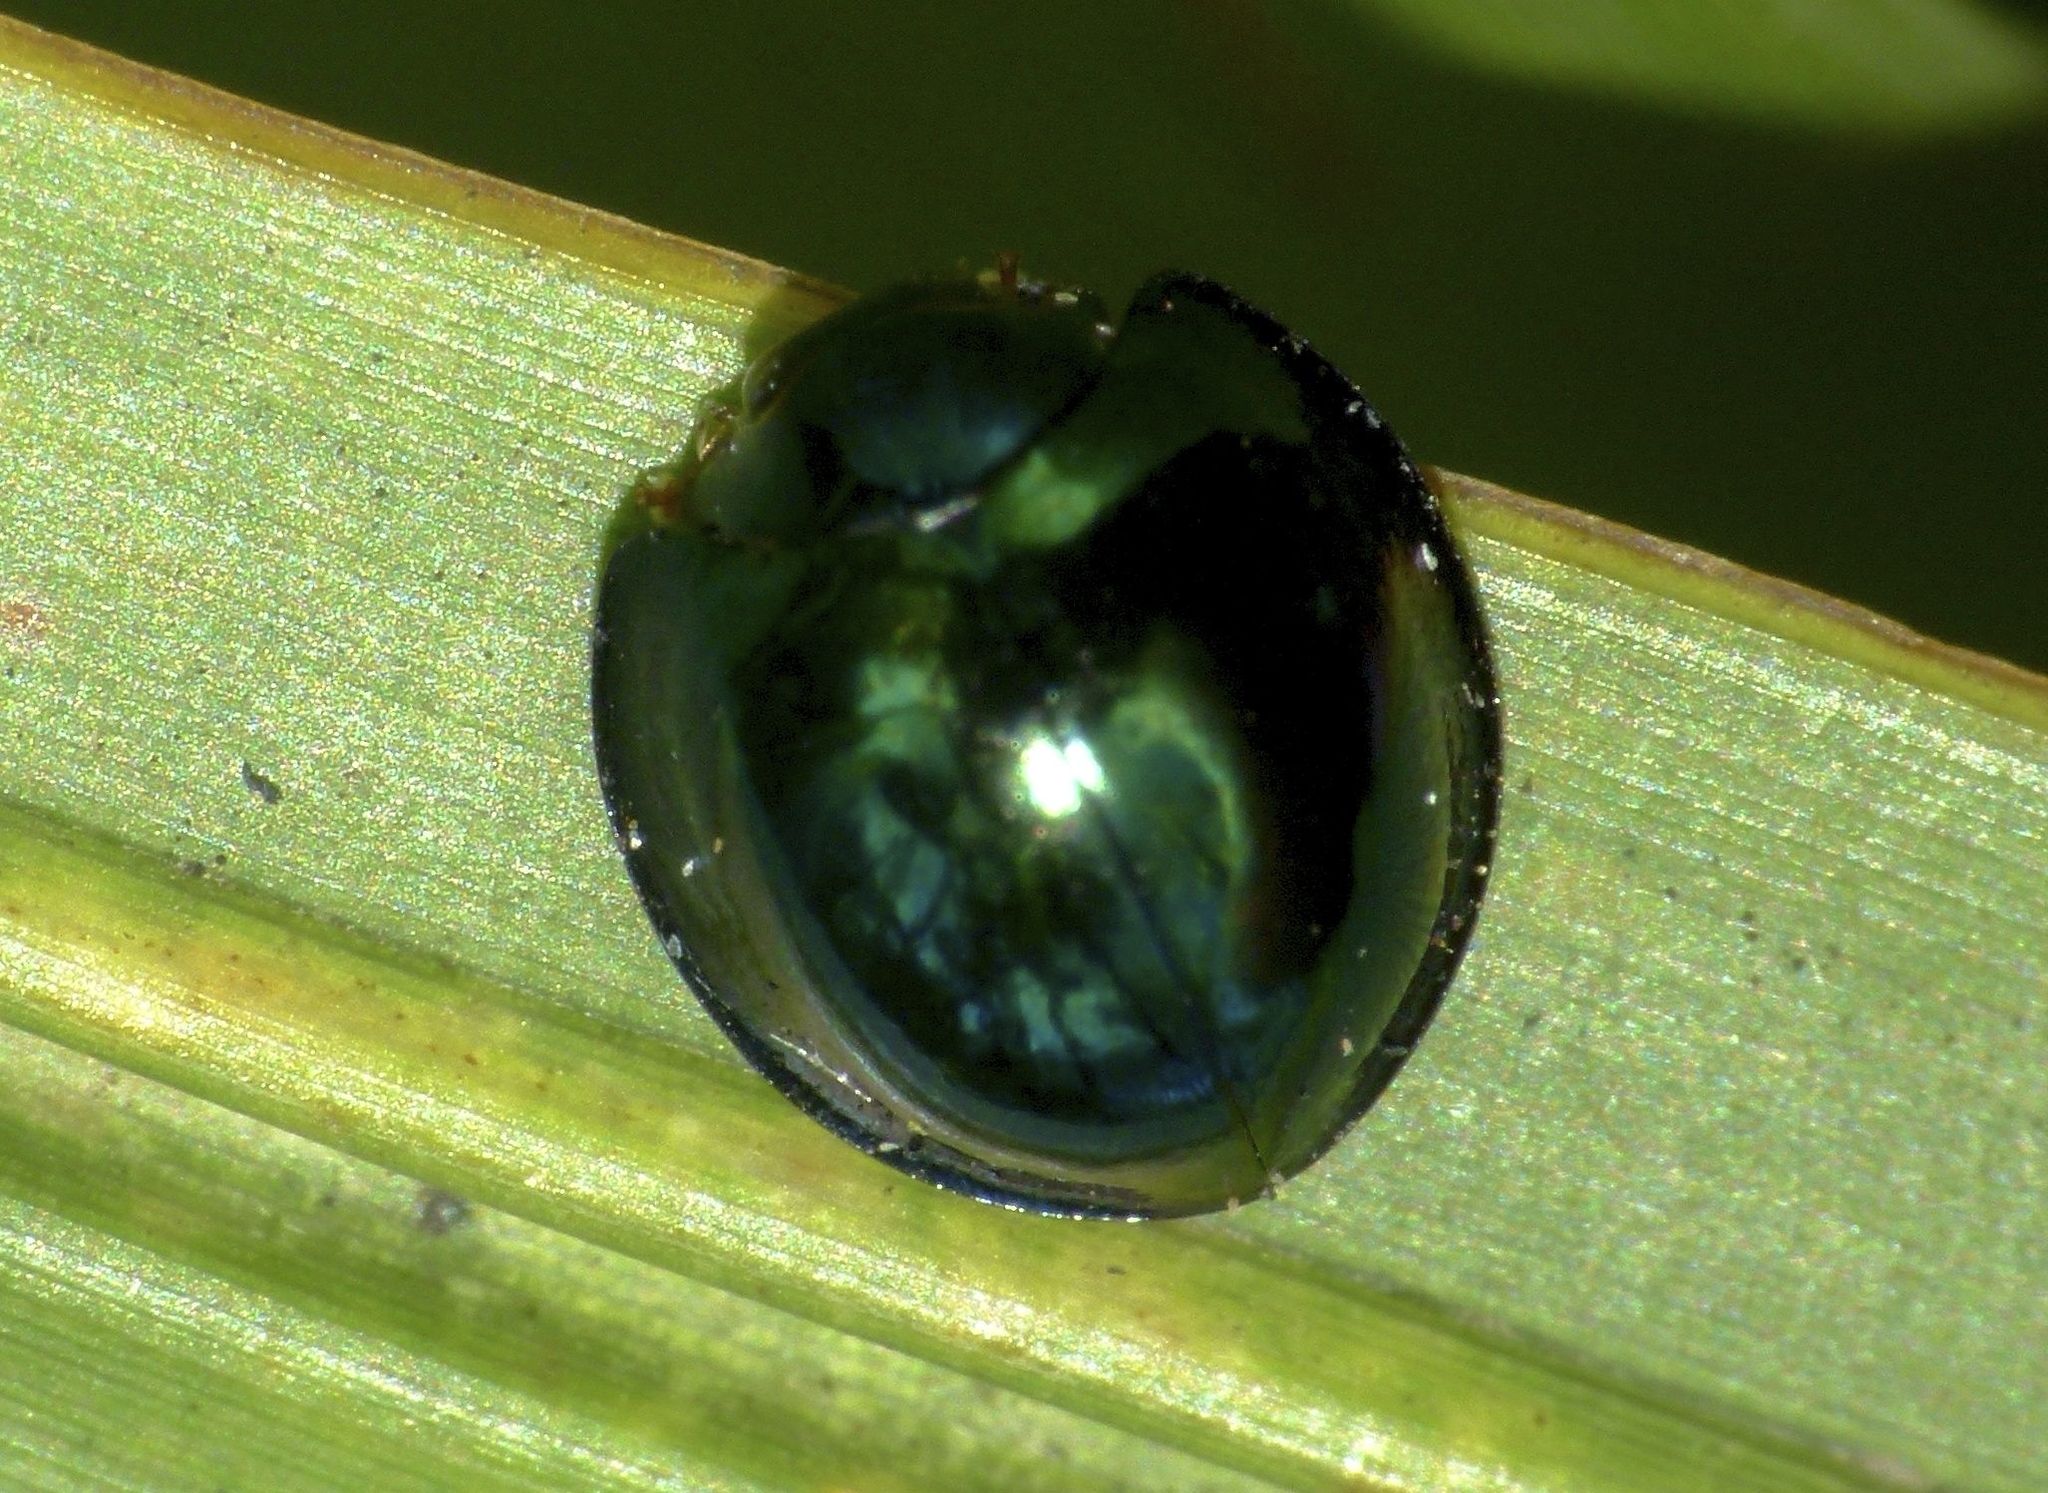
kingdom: Animalia
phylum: Arthropoda
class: Insecta
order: Coleoptera
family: Coccinellidae
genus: Halmus
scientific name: Halmus chalybeus
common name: Steel blue ladybird beetle
